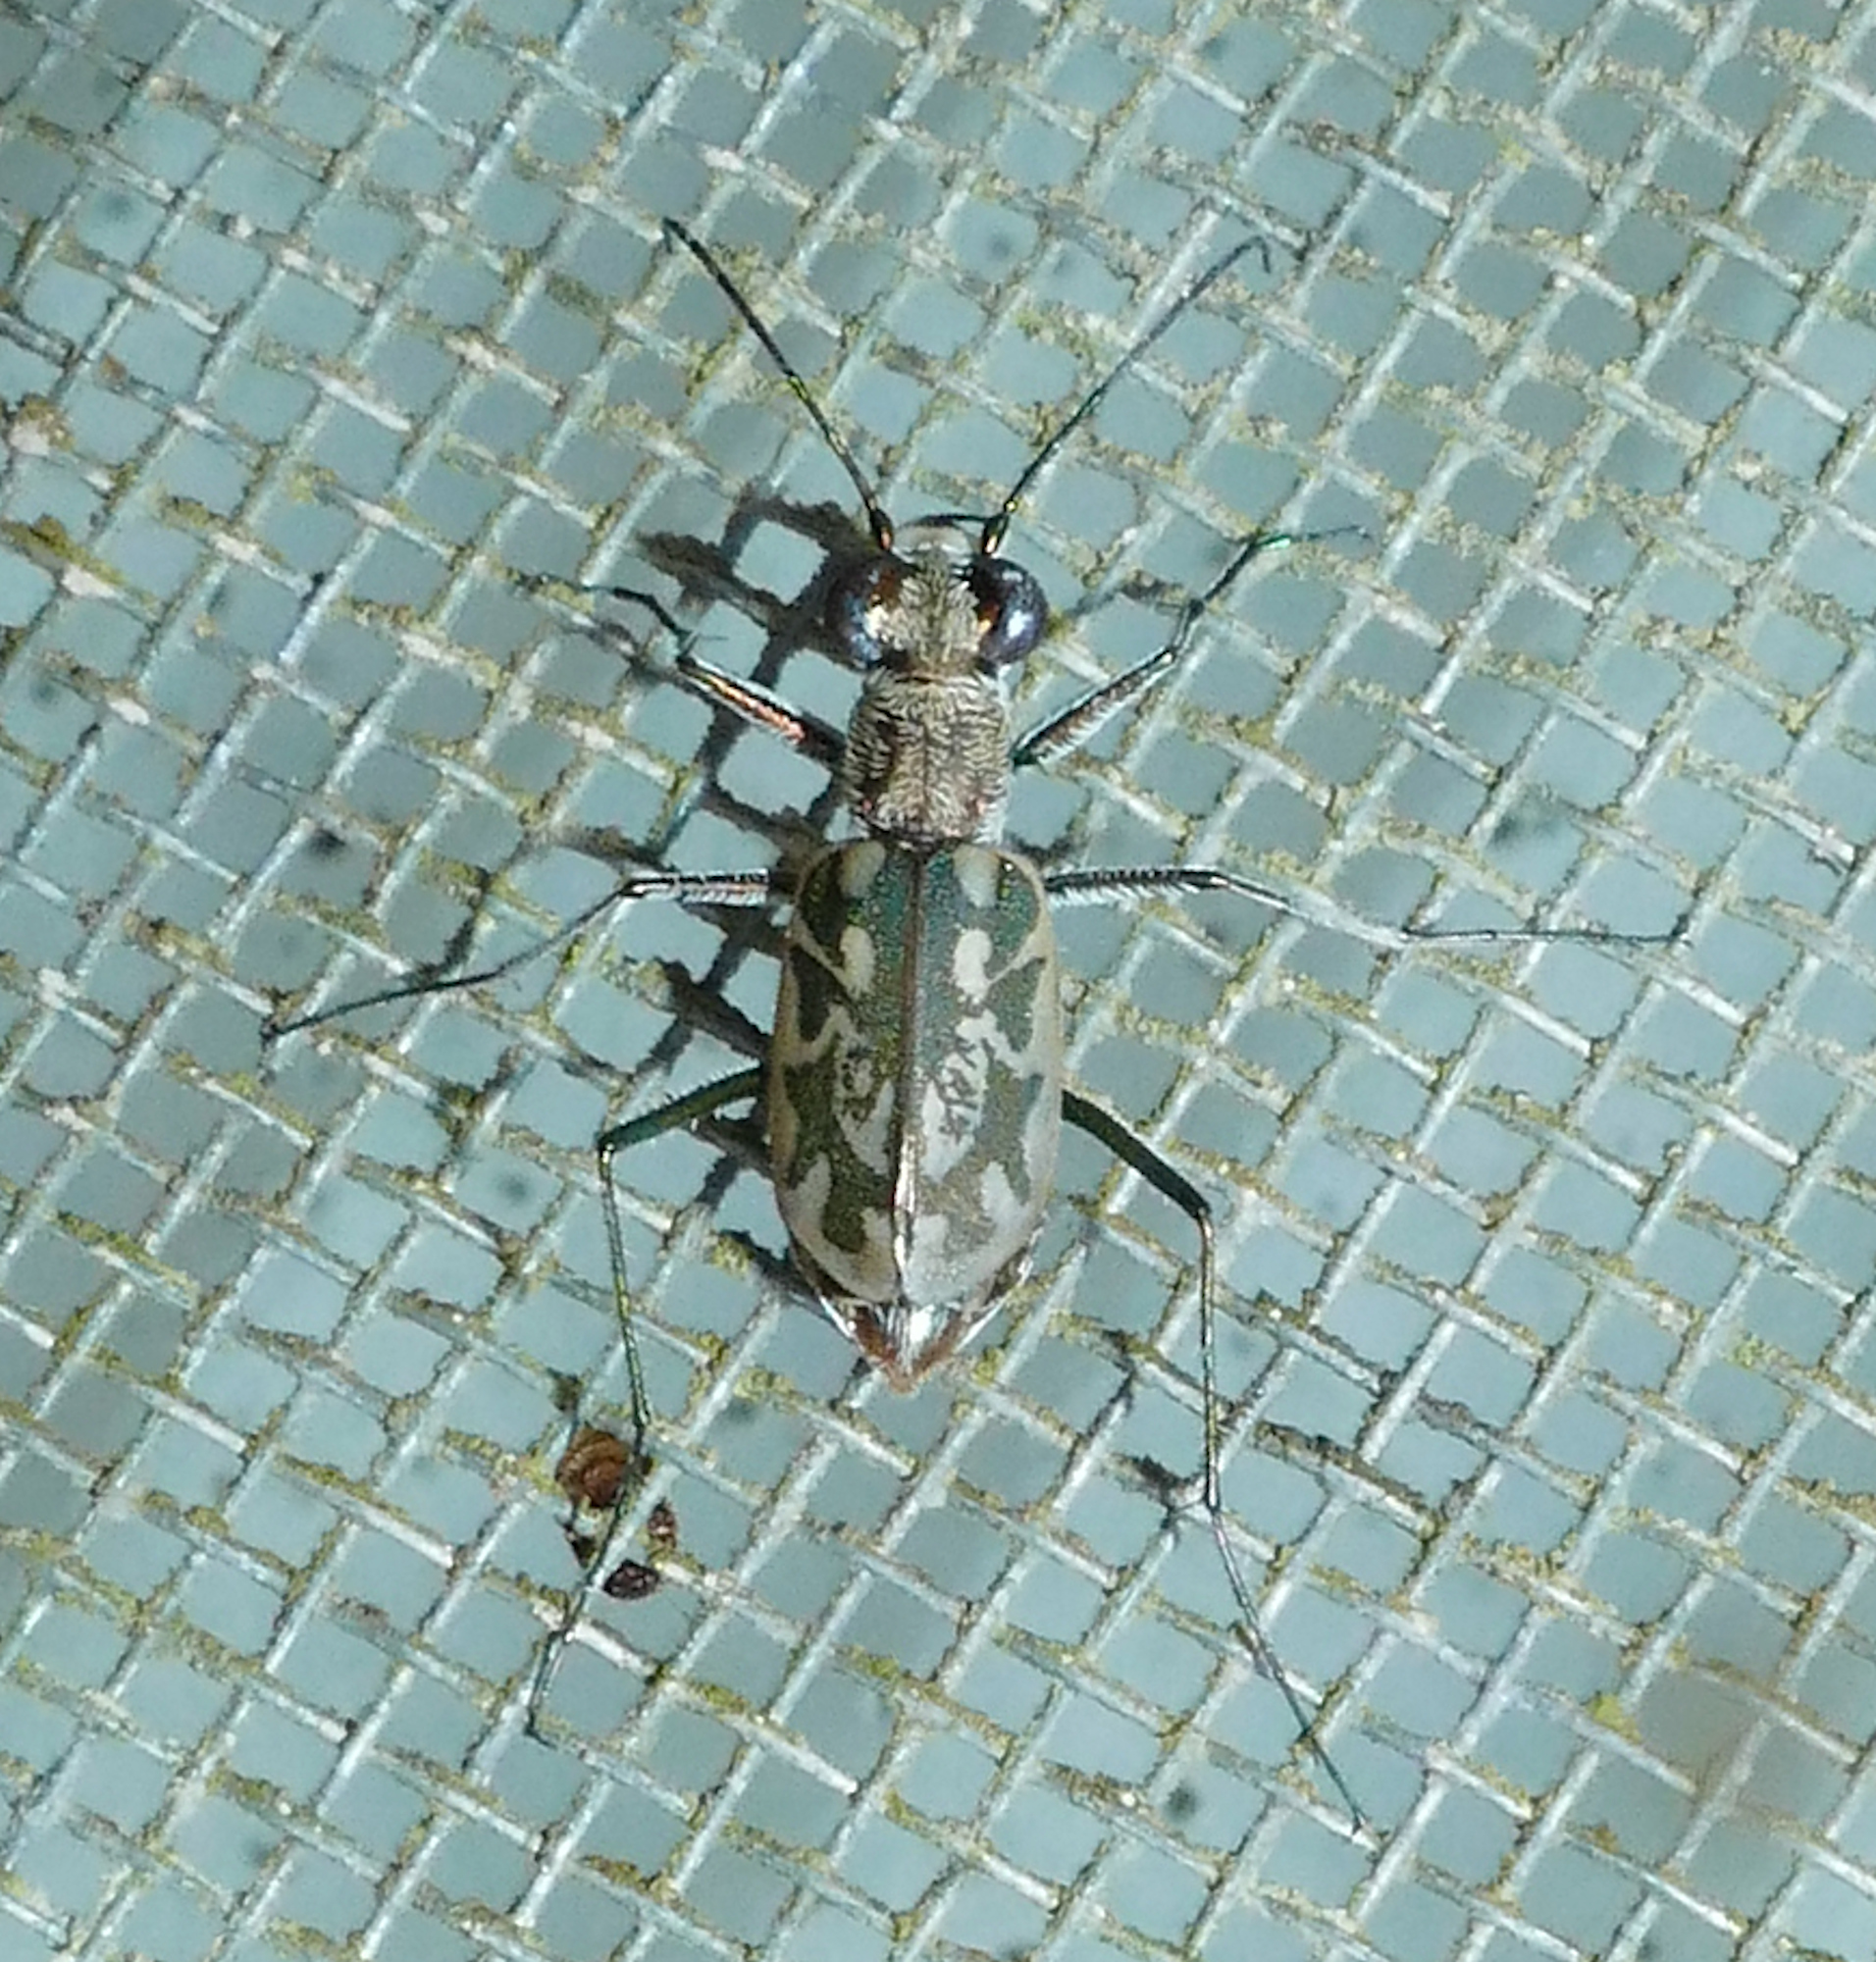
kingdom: Animalia
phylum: Arthropoda
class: Insecta
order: Coleoptera
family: Carabidae
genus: Ellipsoptera
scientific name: Ellipsoptera hamata
